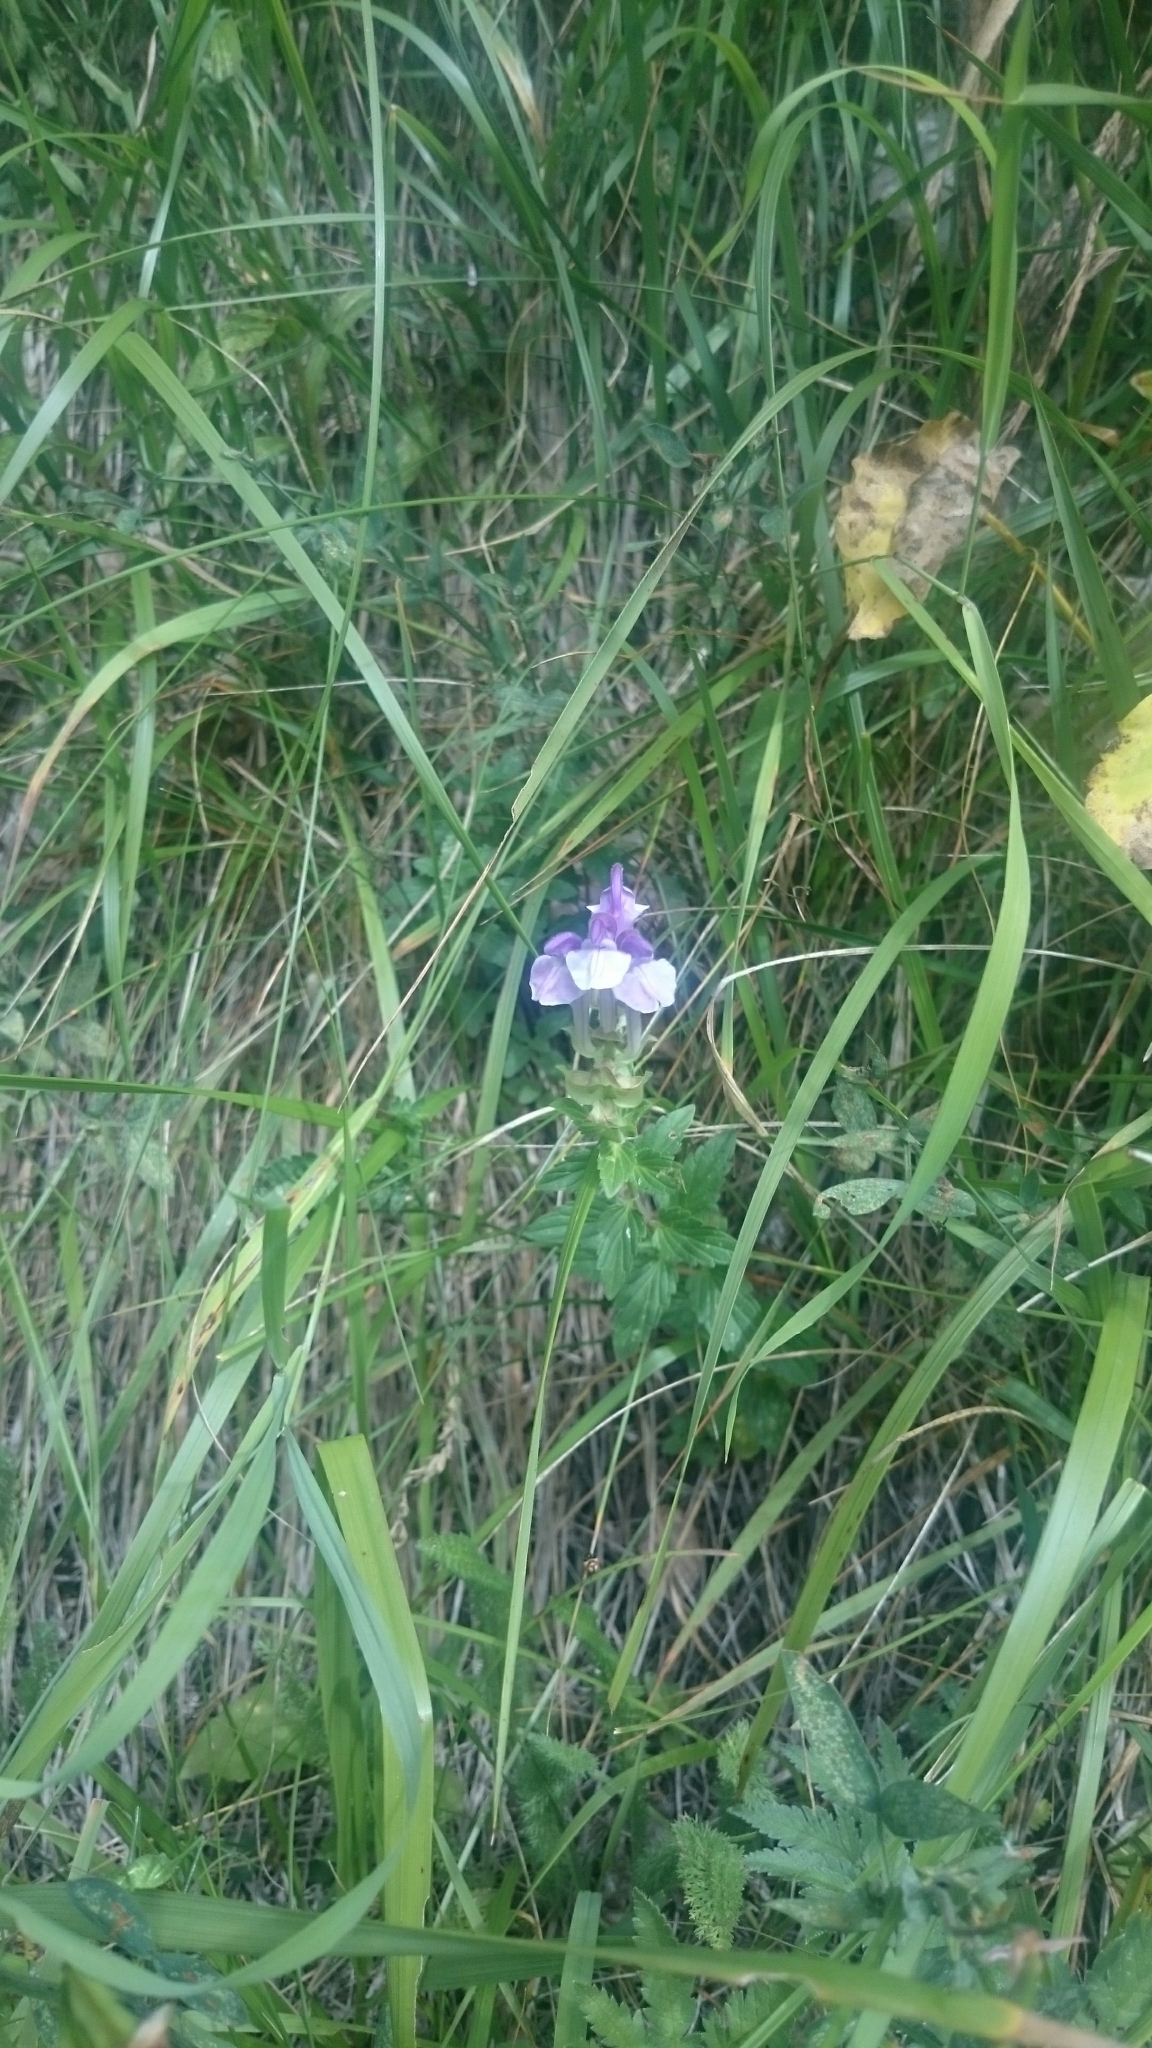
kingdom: Plantae
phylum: Tracheophyta
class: Magnoliopsida
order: Lamiales
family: Lamiaceae
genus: Scutellaria
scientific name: Scutellaria alpina
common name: Alpine scullcap
